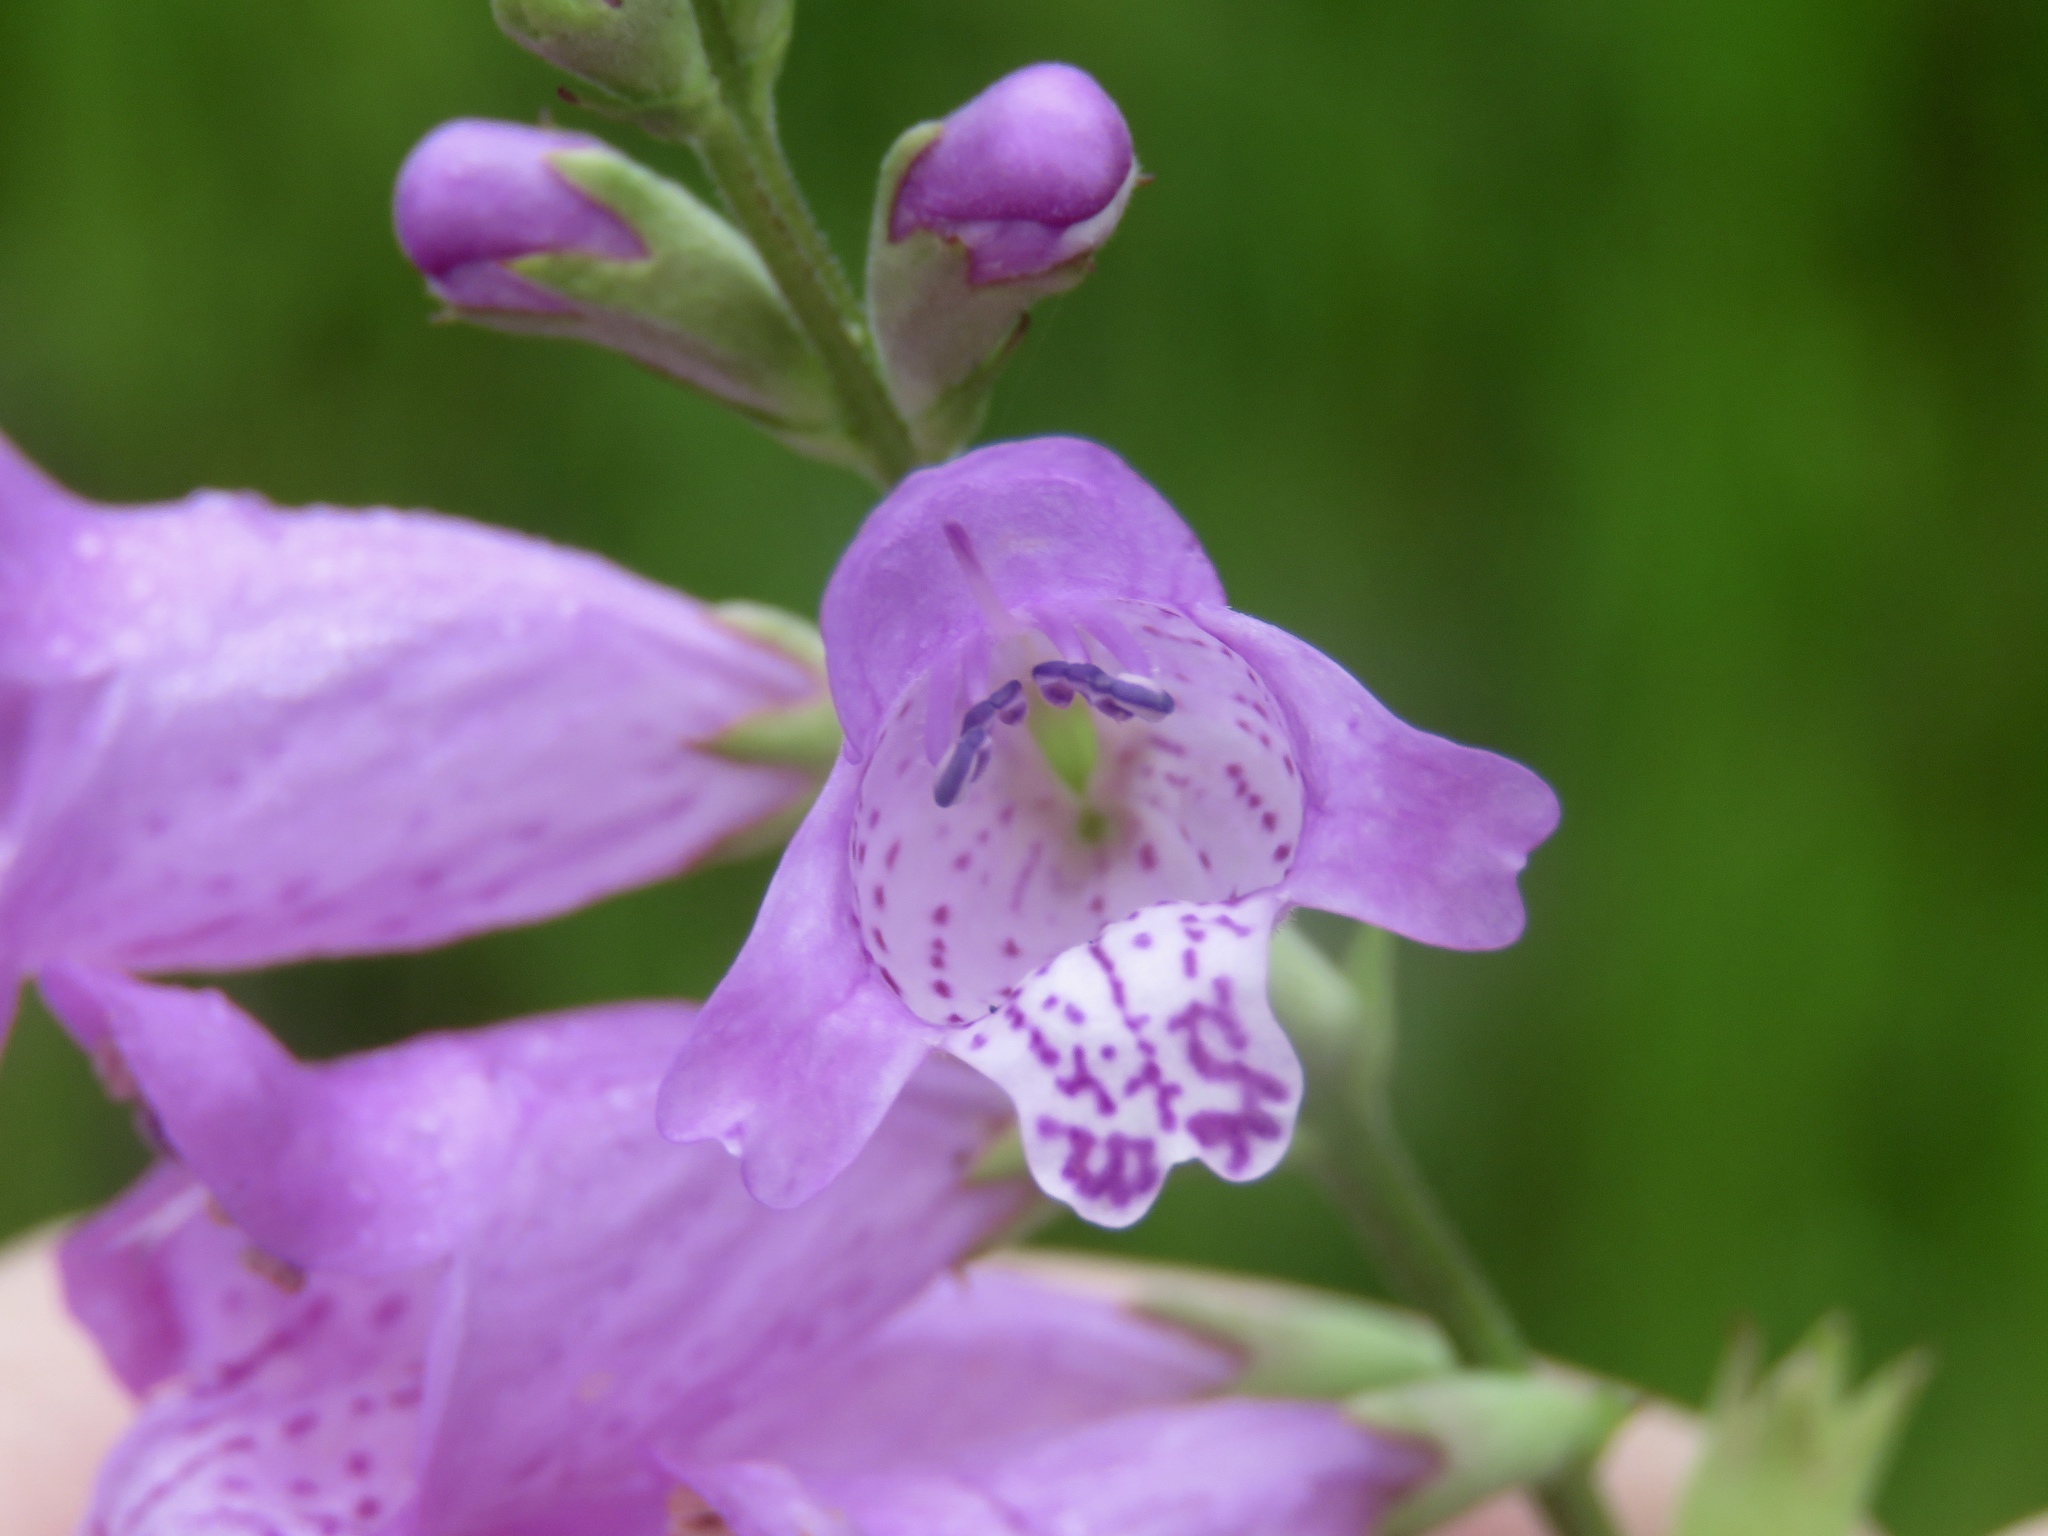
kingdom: Plantae
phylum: Tracheophyta
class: Magnoliopsida
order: Lamiales
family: Lamiaceae
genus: Physostegia
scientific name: Physostegia longisepala
